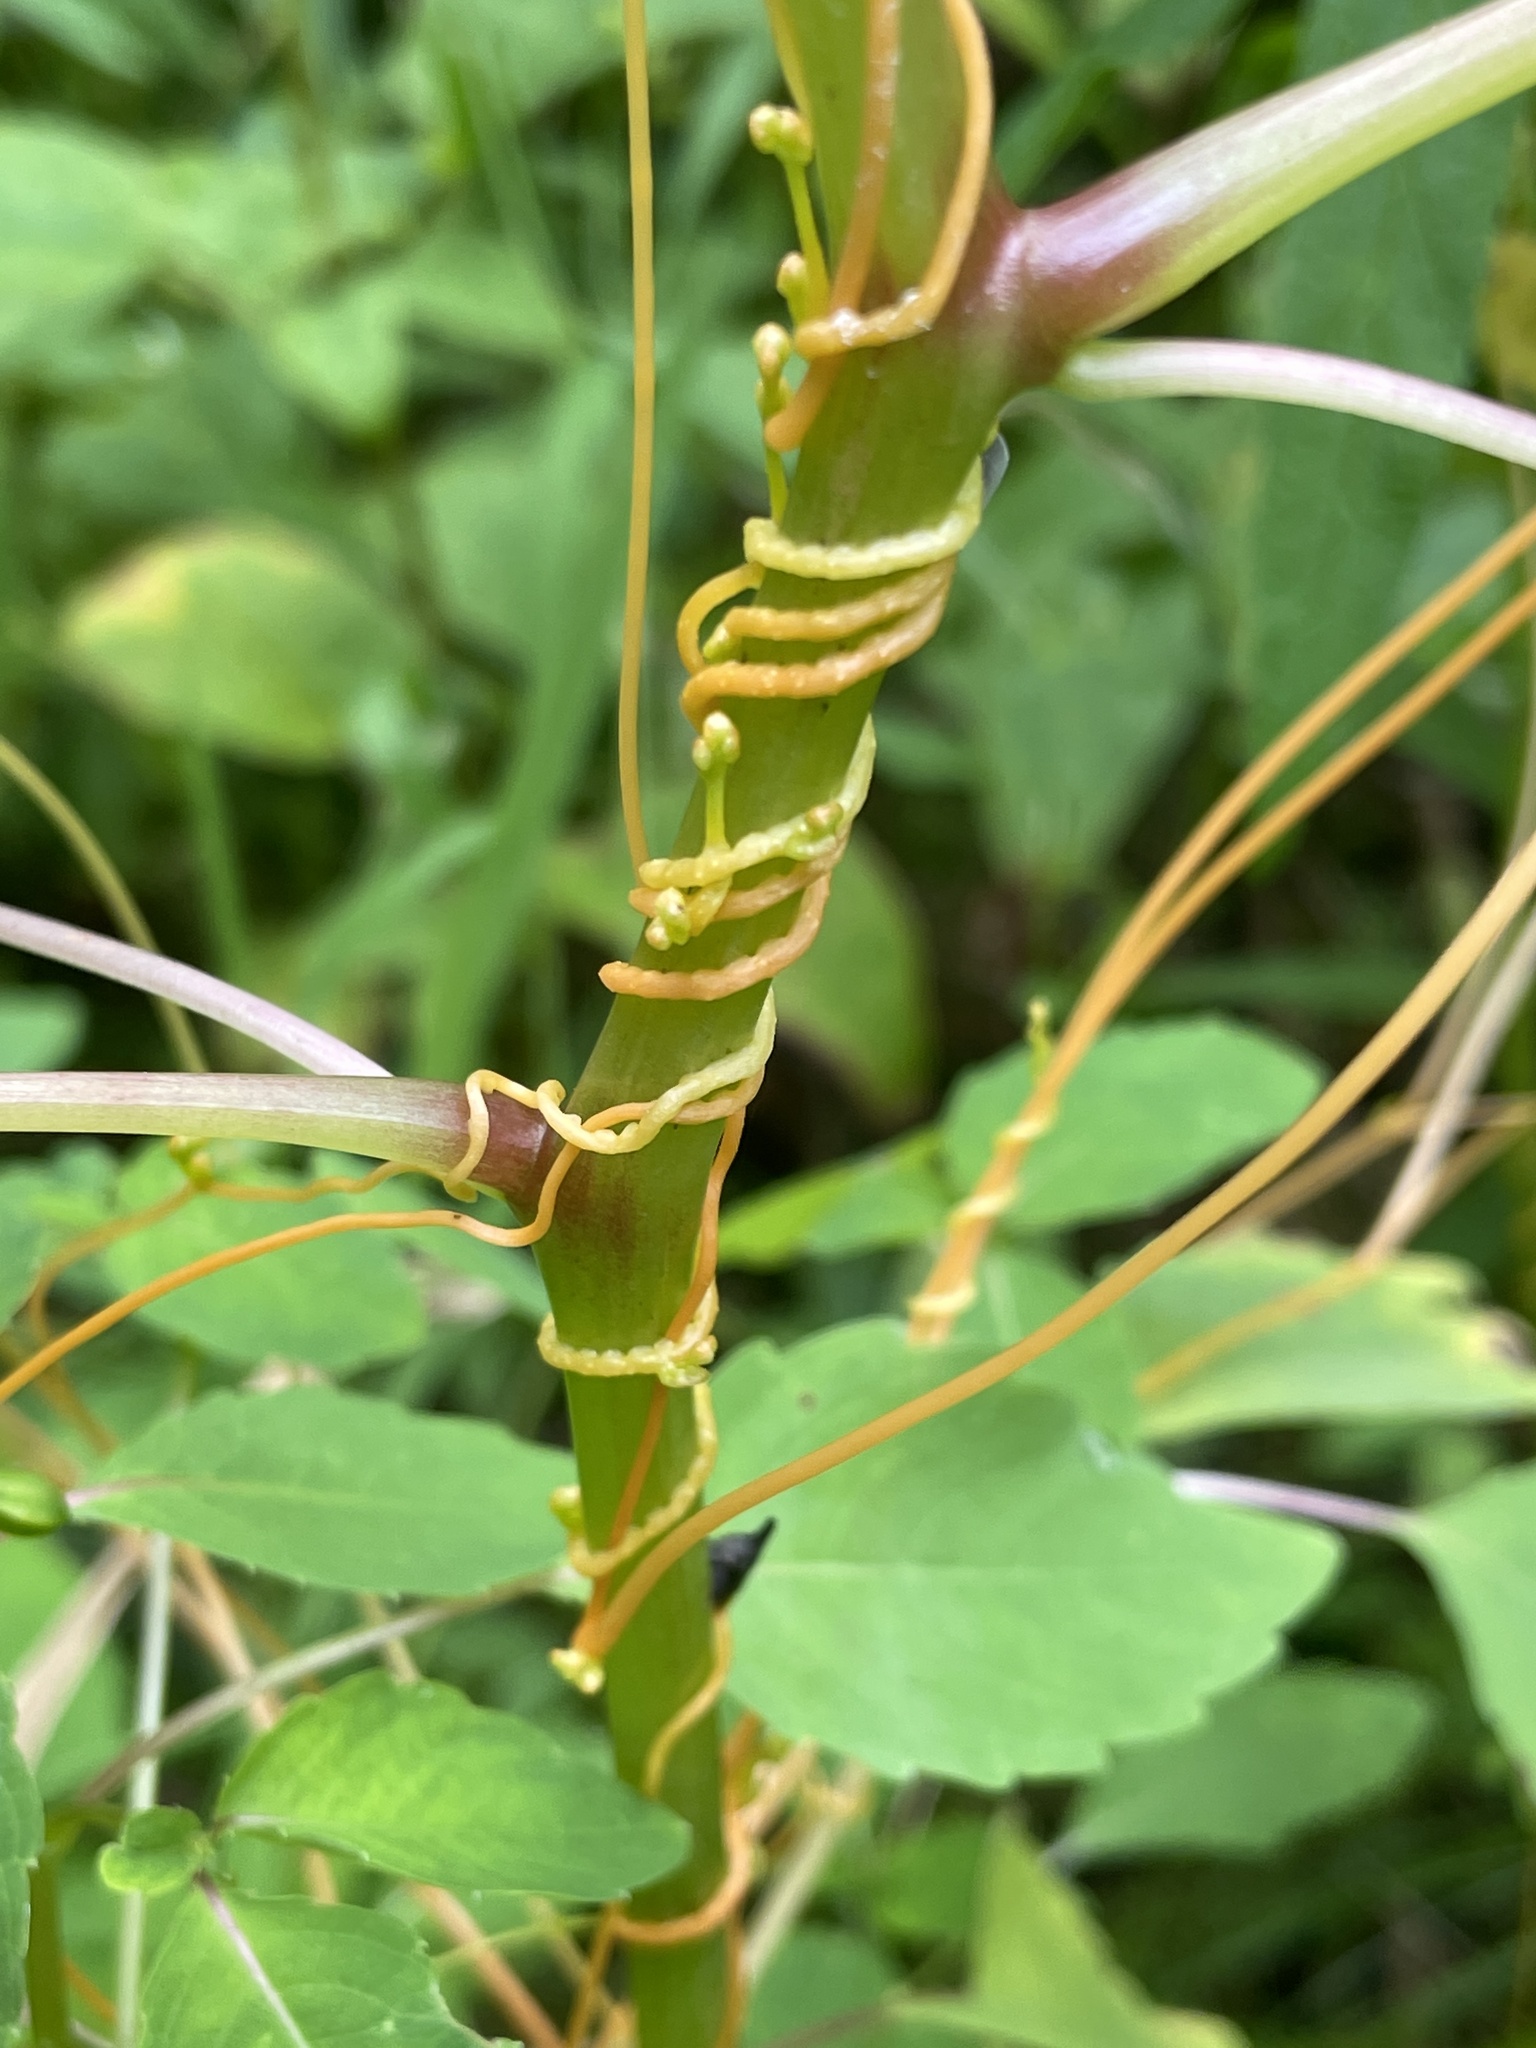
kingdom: Plantae
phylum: Tracheophyta
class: Magnoliopsida
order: Solanales
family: Convolvulaceae
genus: Cuscuta
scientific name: Cuscuta gronovii
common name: Common dodder
